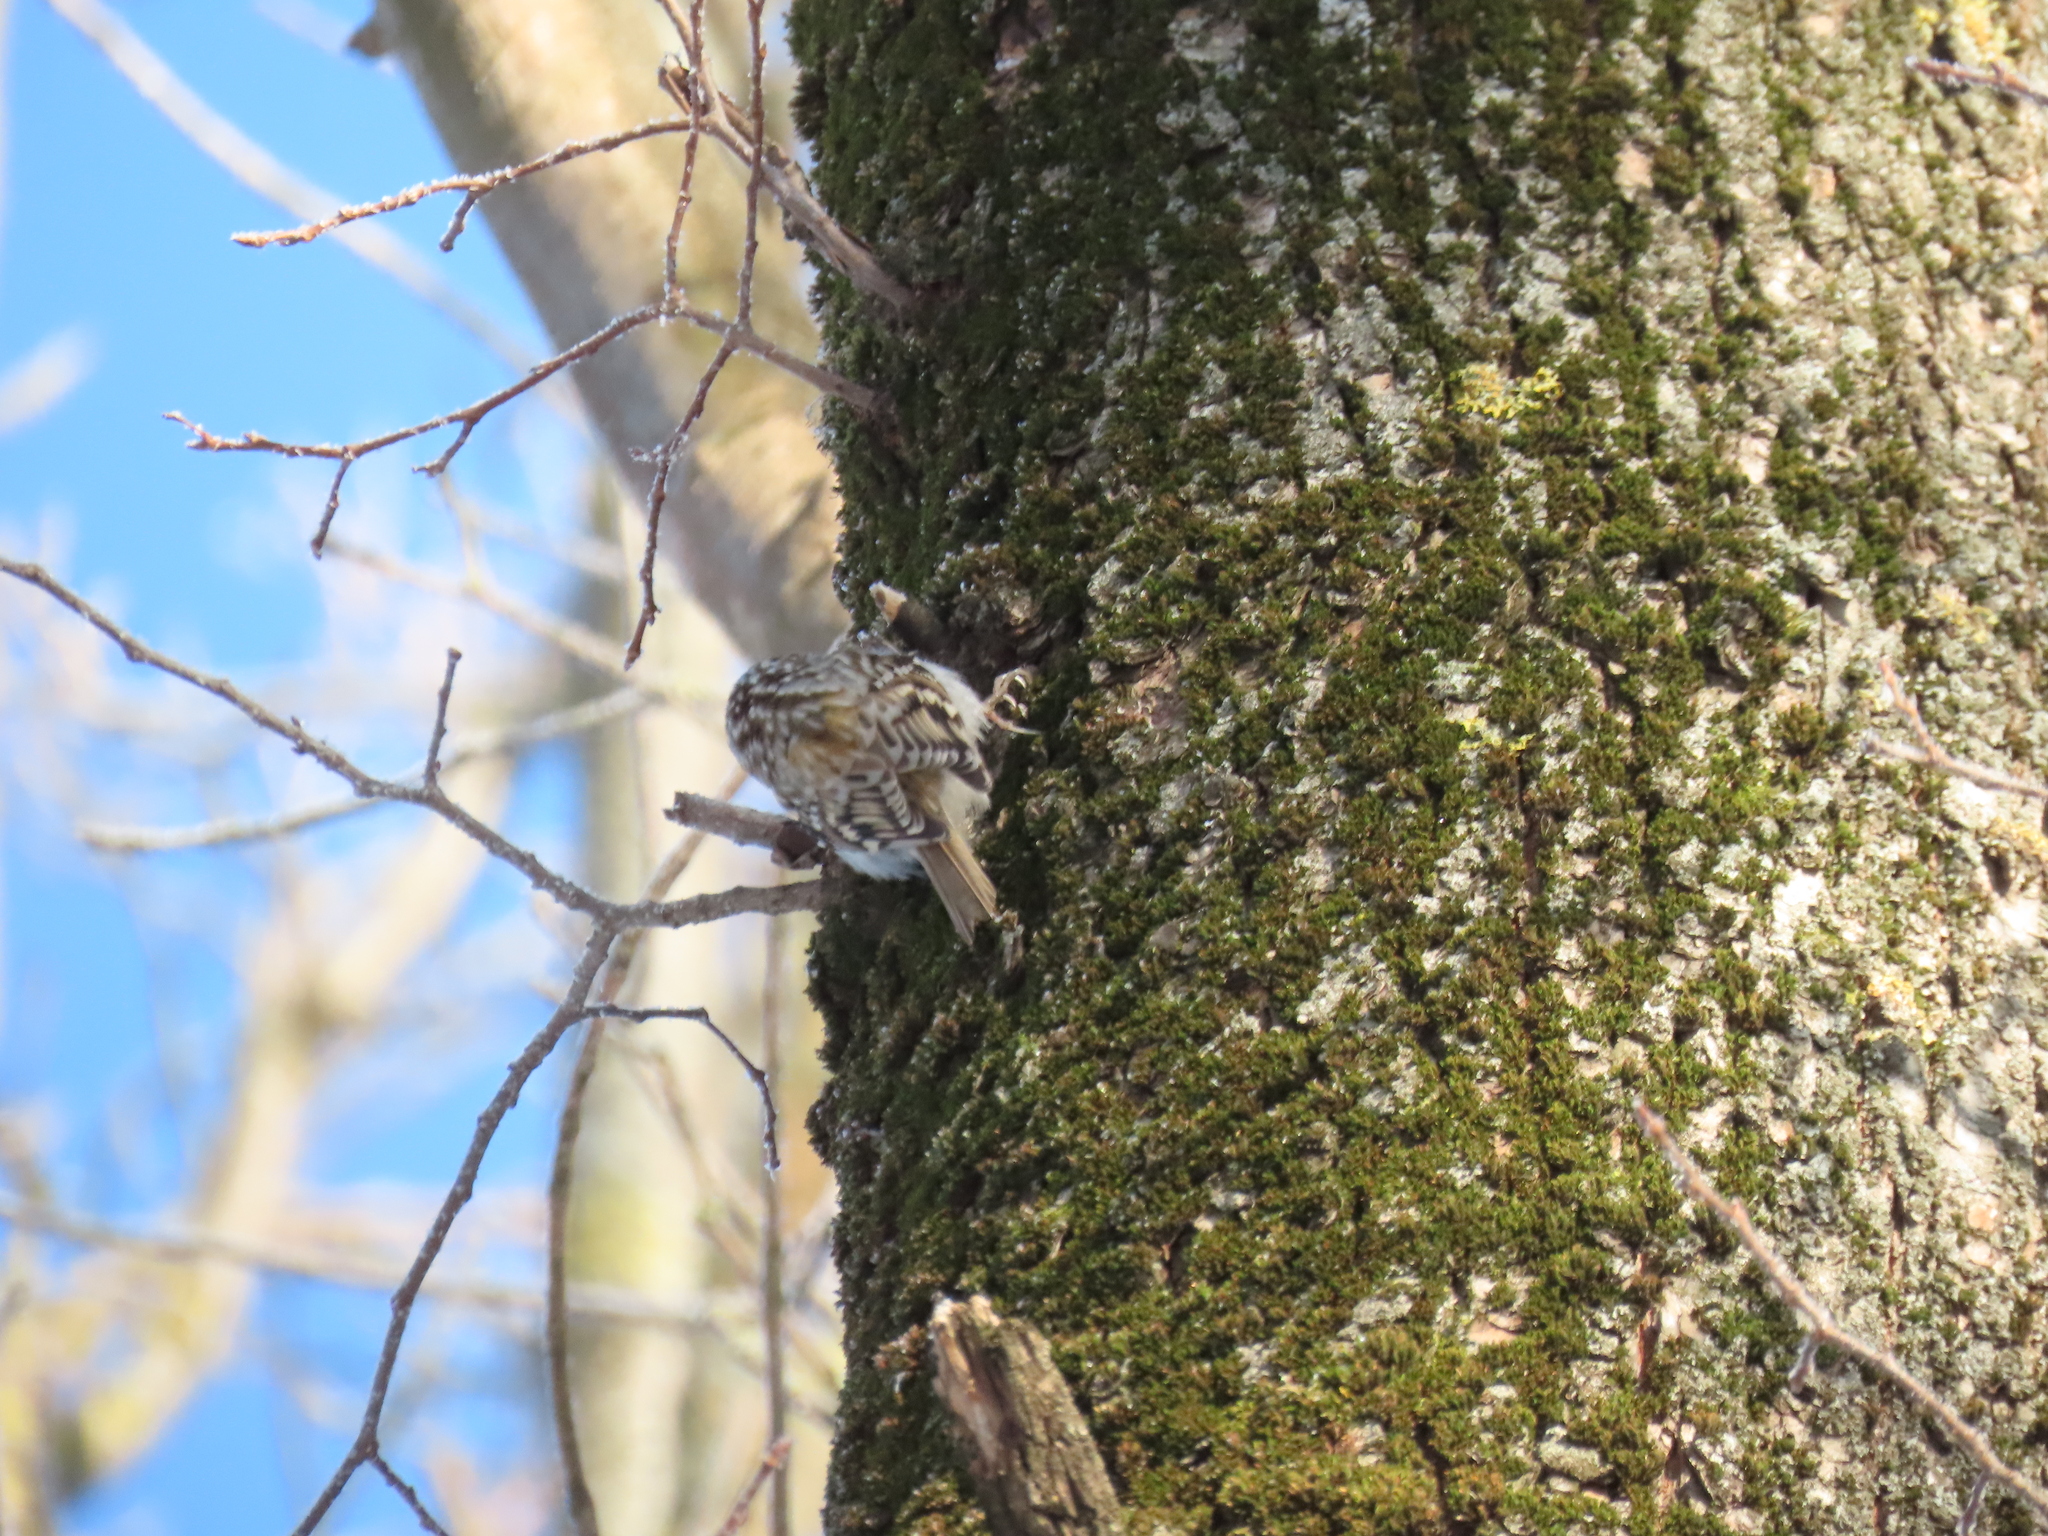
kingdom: Animalia
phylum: Chordata
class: Aves
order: Passeriformes
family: Certhiidae
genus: Certhia
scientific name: Certhia familiaris
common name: Eurasian treecreeper
